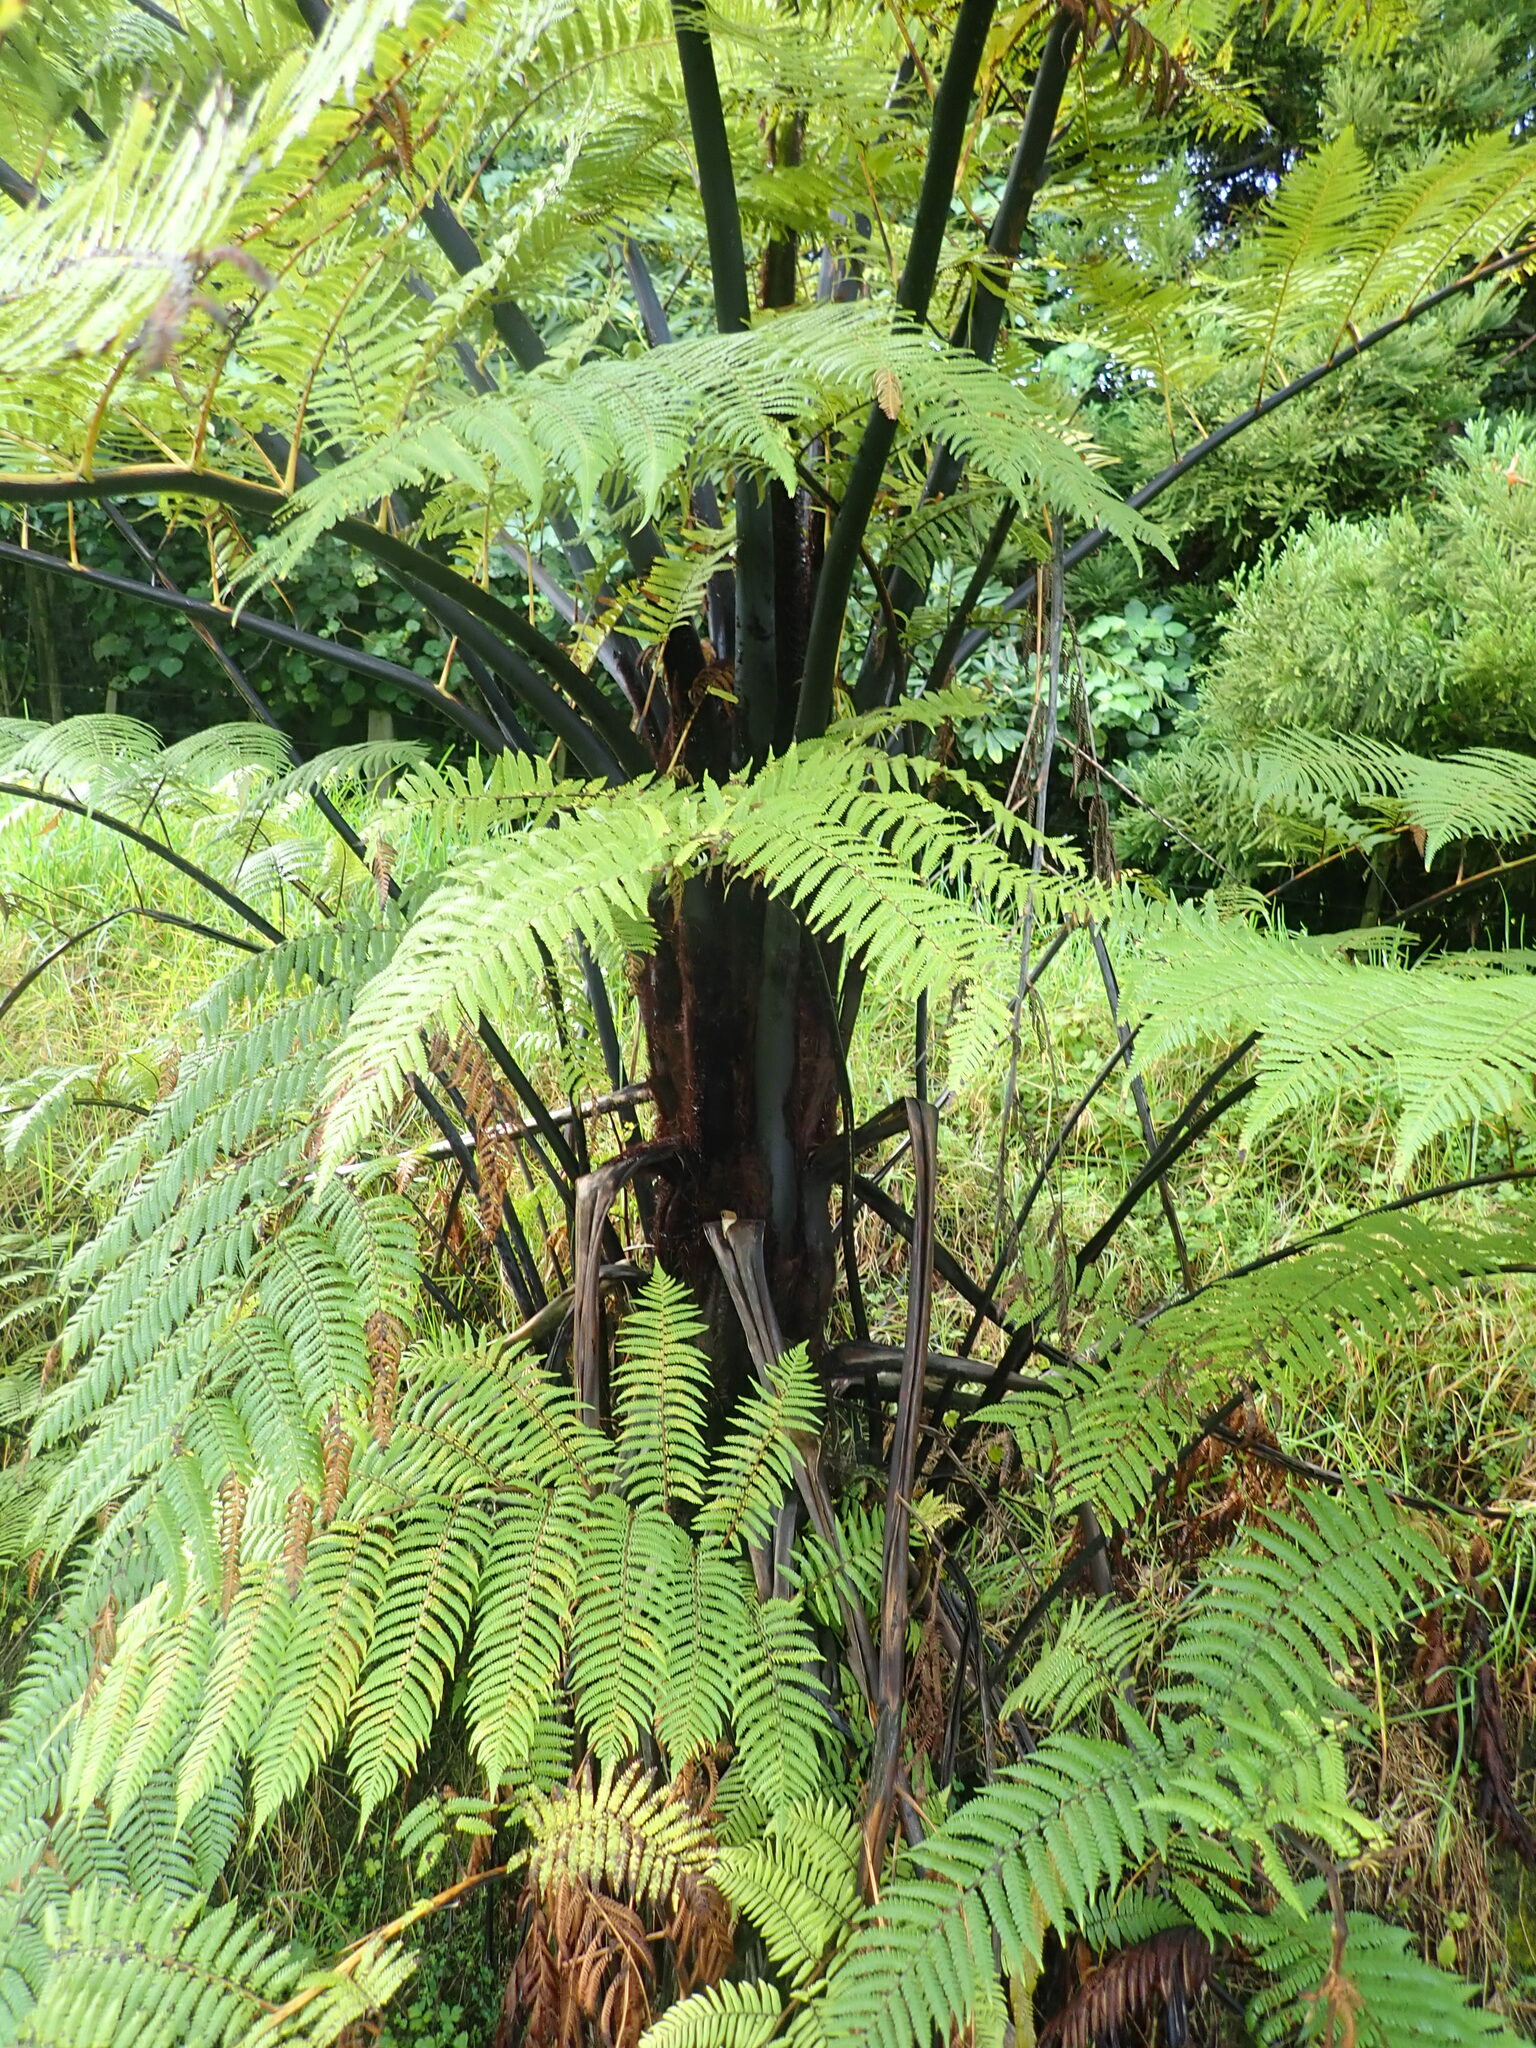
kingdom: Plantae
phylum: Tracheophyta
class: Polypodiopsida
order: Cyatheales
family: Cyatheaceae
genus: Sphaeropteris
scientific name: Sphaeropteris medullaris
